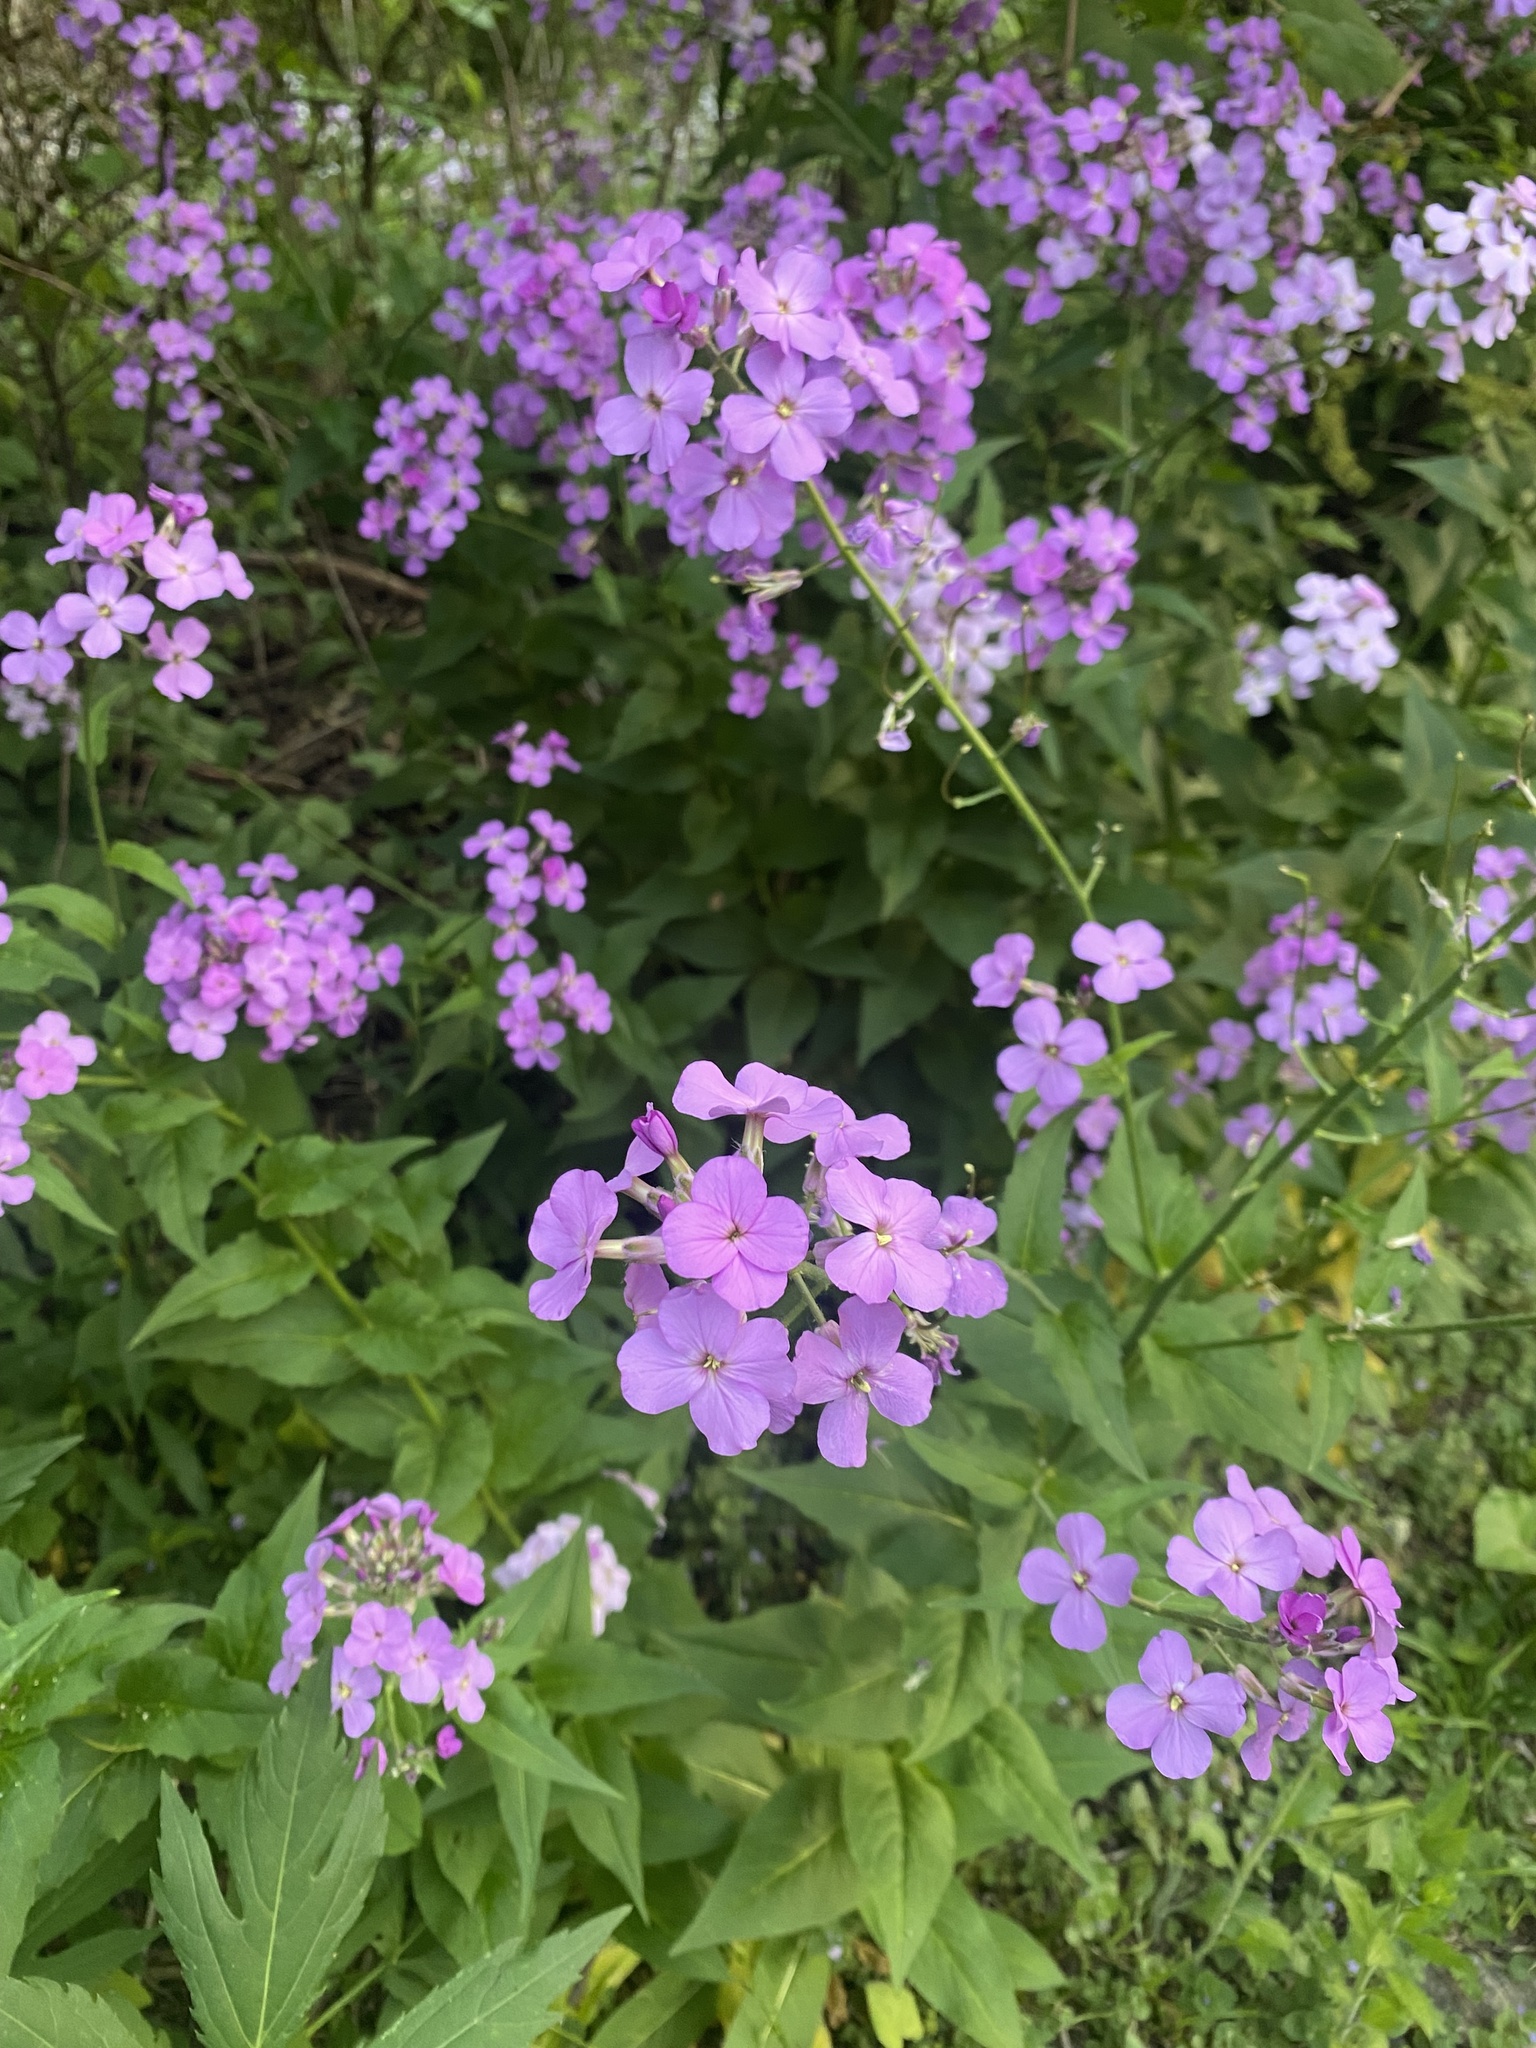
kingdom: Plantae
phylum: Tracheophyta
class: Magnoliopsida
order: Brassicales
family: Brassicaceae
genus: Hesperis
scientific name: Hesperis matronalis
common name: Dame's-violet
